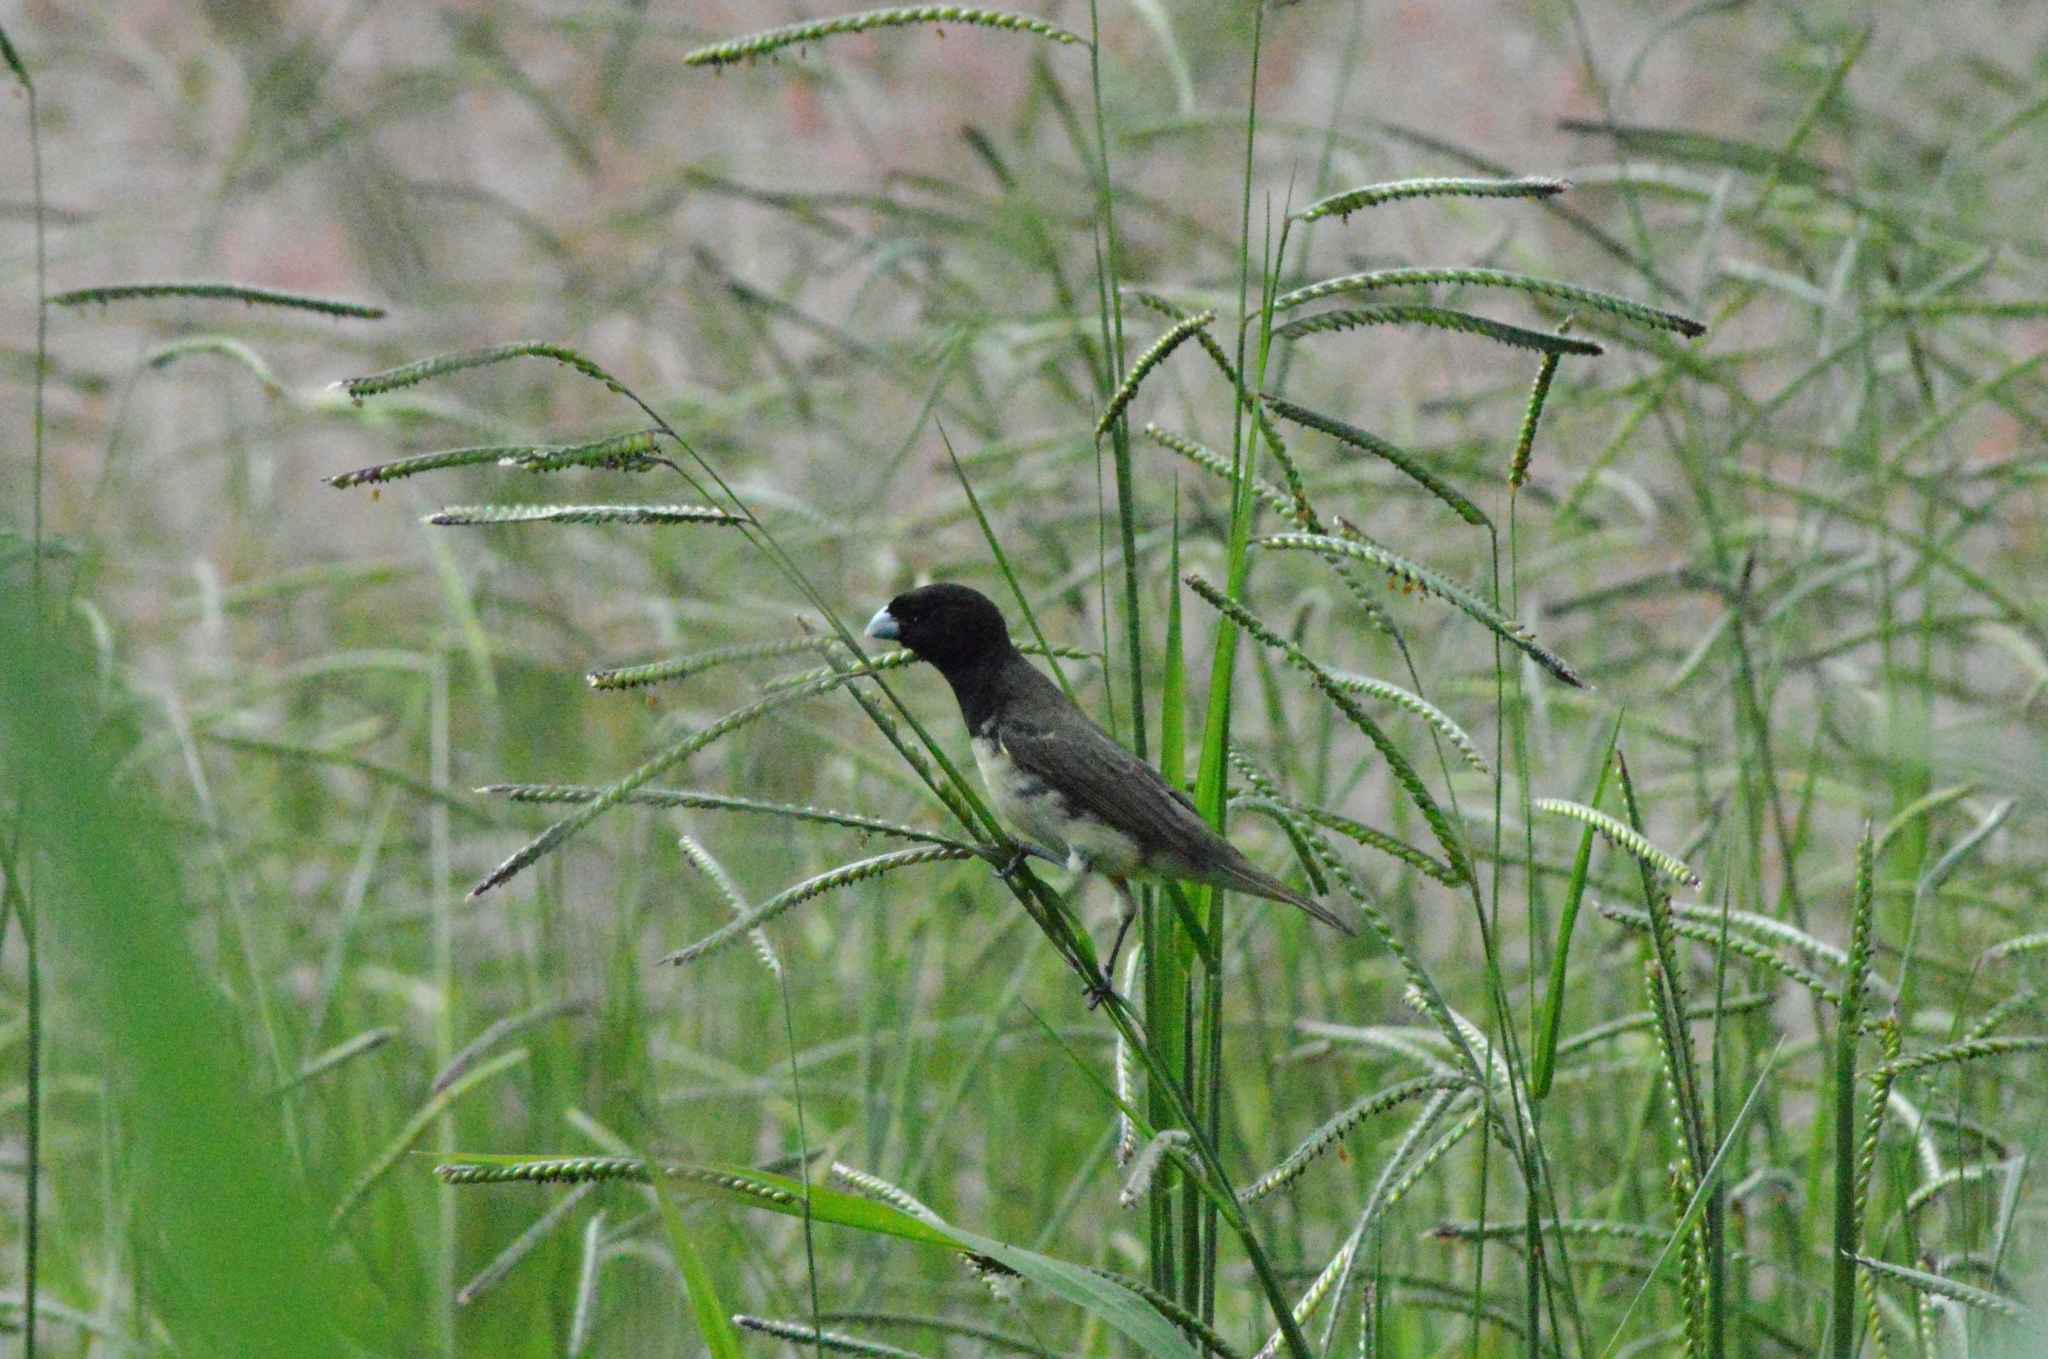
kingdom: Animalia
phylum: Chordata
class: Aves
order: Passeriformes
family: Thraupidae
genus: Sporophila
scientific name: Sporophila nigricollis
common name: Yellow-bellied seedeater
